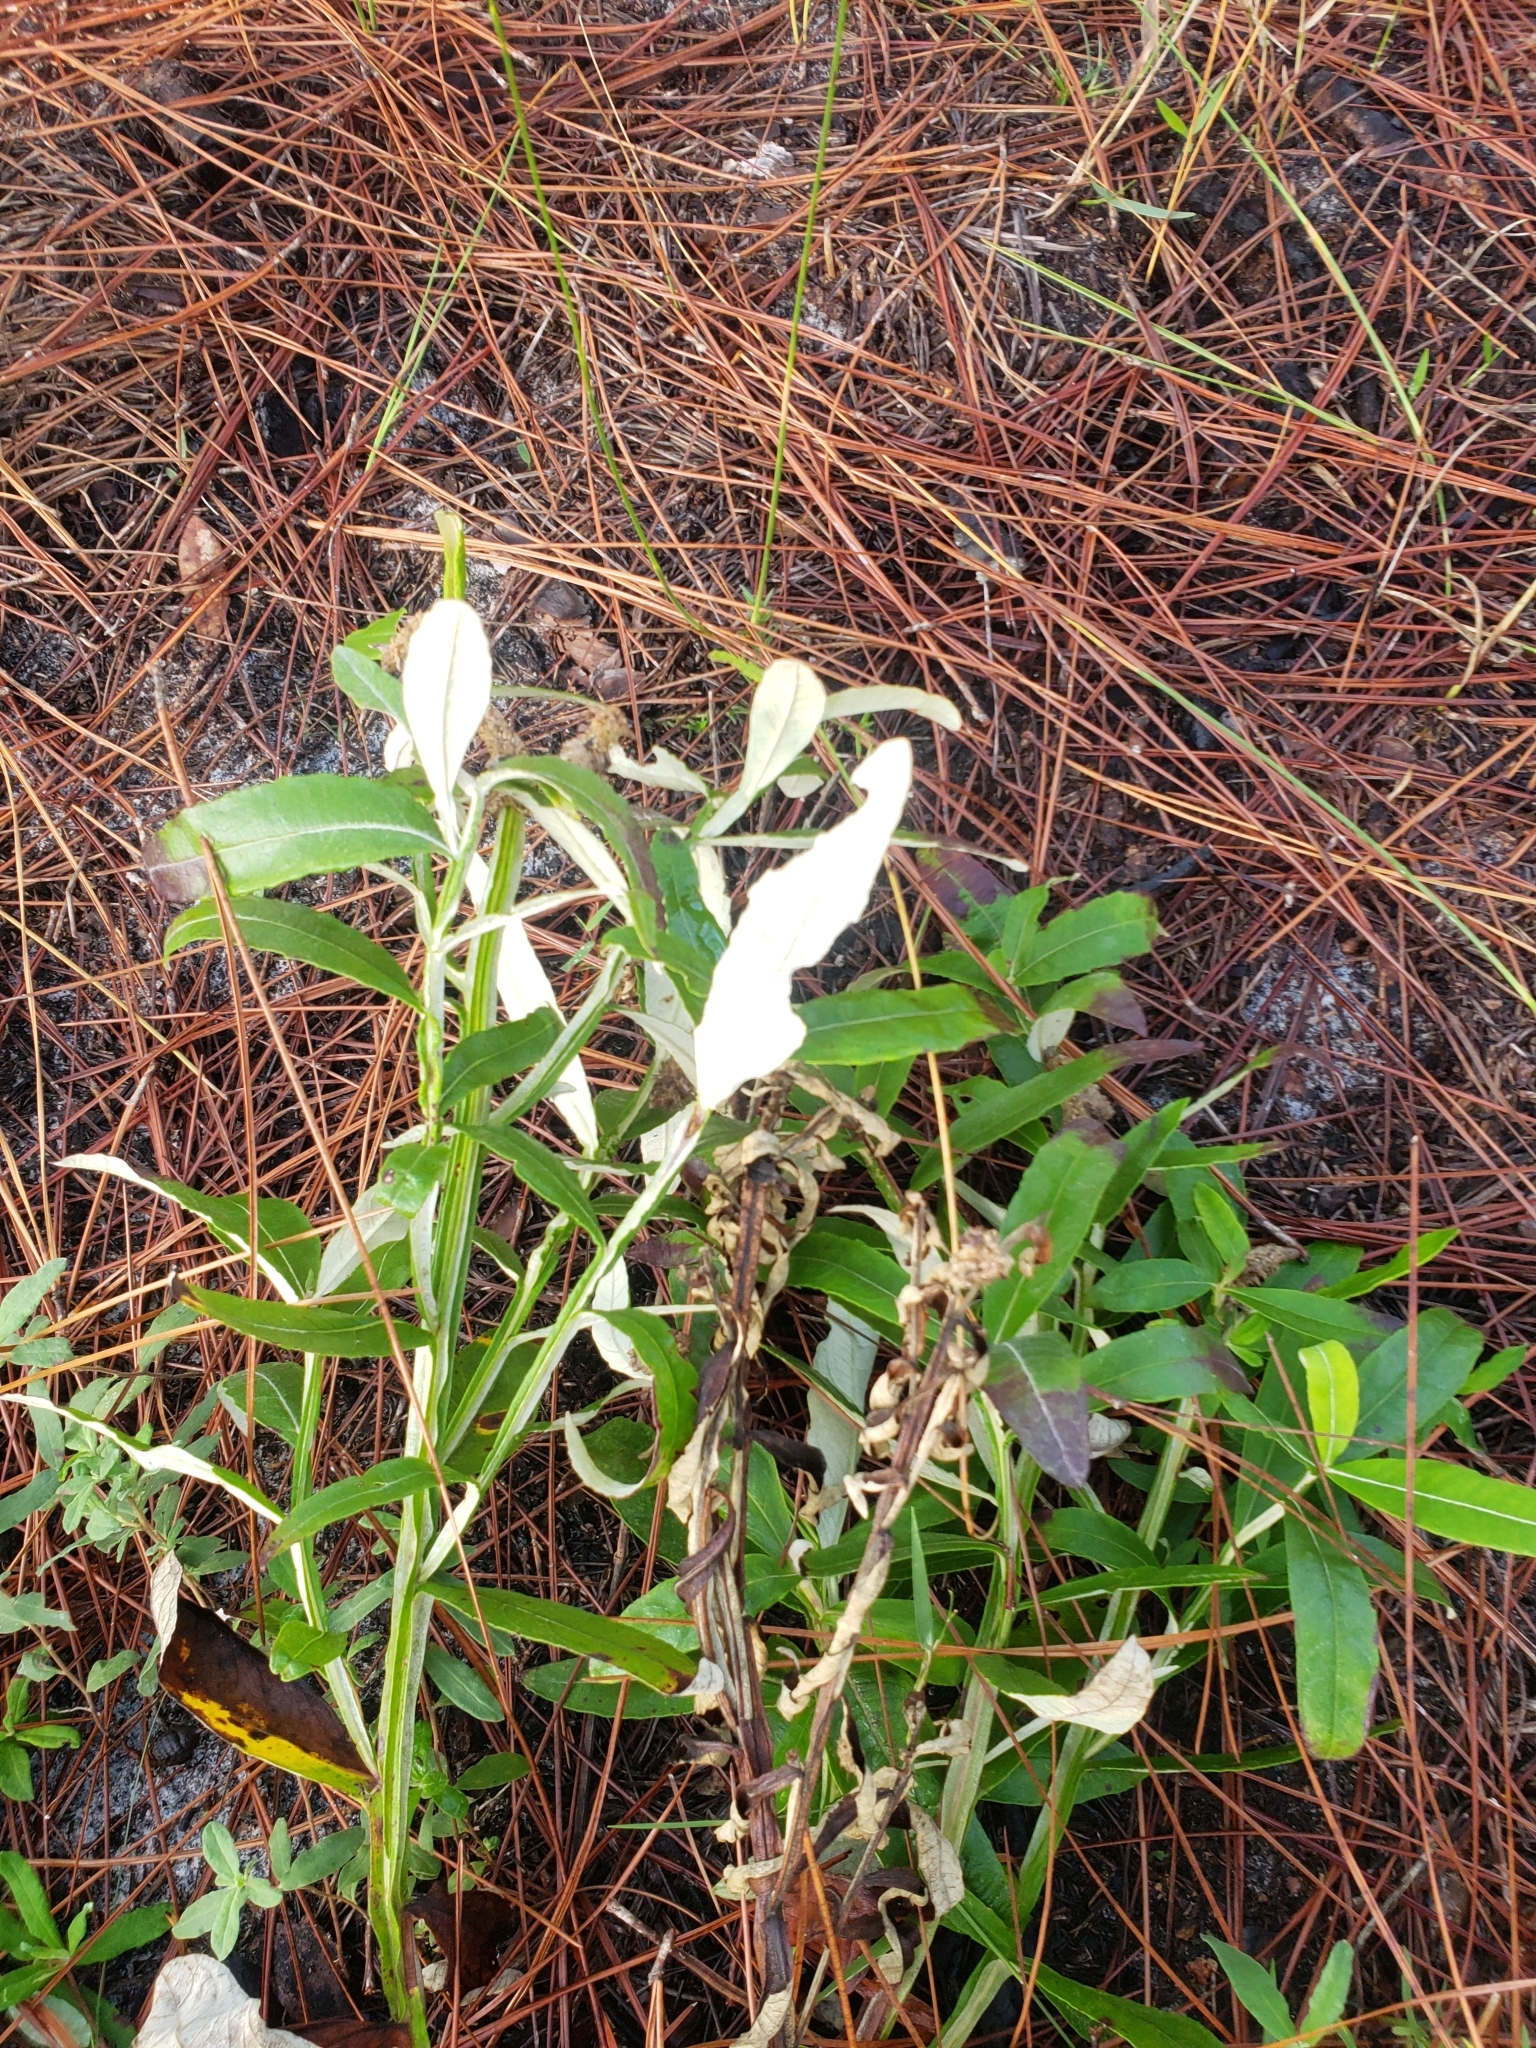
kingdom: Plantae
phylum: Tracheophyta
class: Magnoliopsida
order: Asterales
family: Asteraceae
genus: Pterocaulon
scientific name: Pterocaulon pycnostachyum
